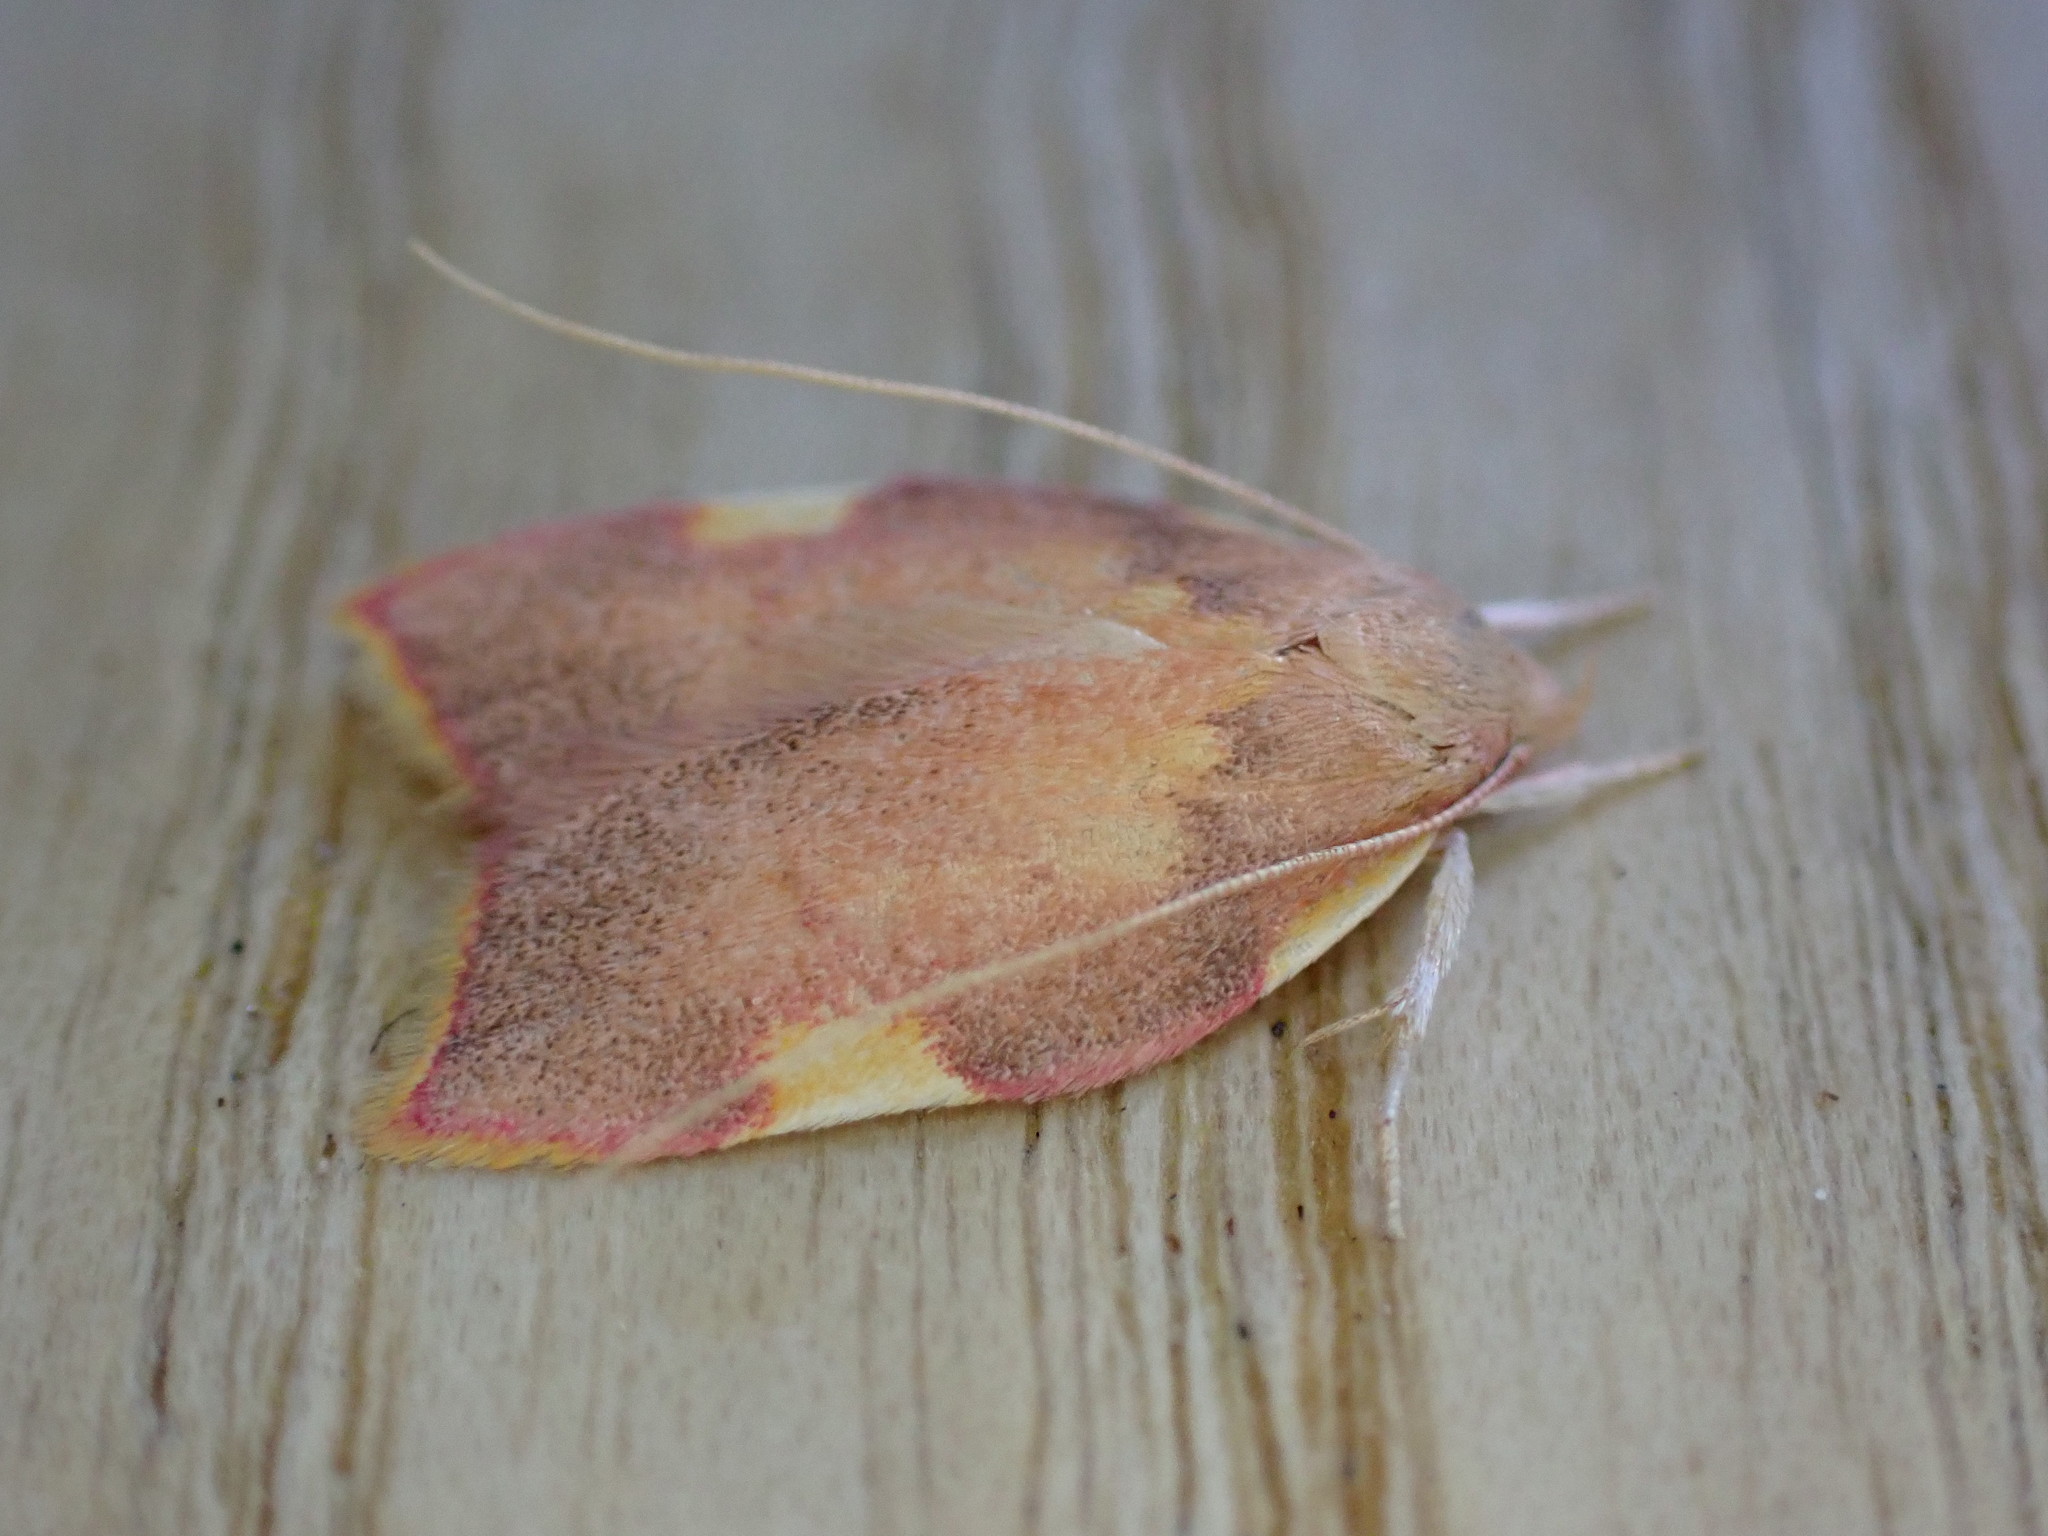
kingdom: Animalia
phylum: Arthropoda
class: Insecta
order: Lepidoptera
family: Peleopodidae
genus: Carcina
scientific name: Carcina quercana
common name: Moth
